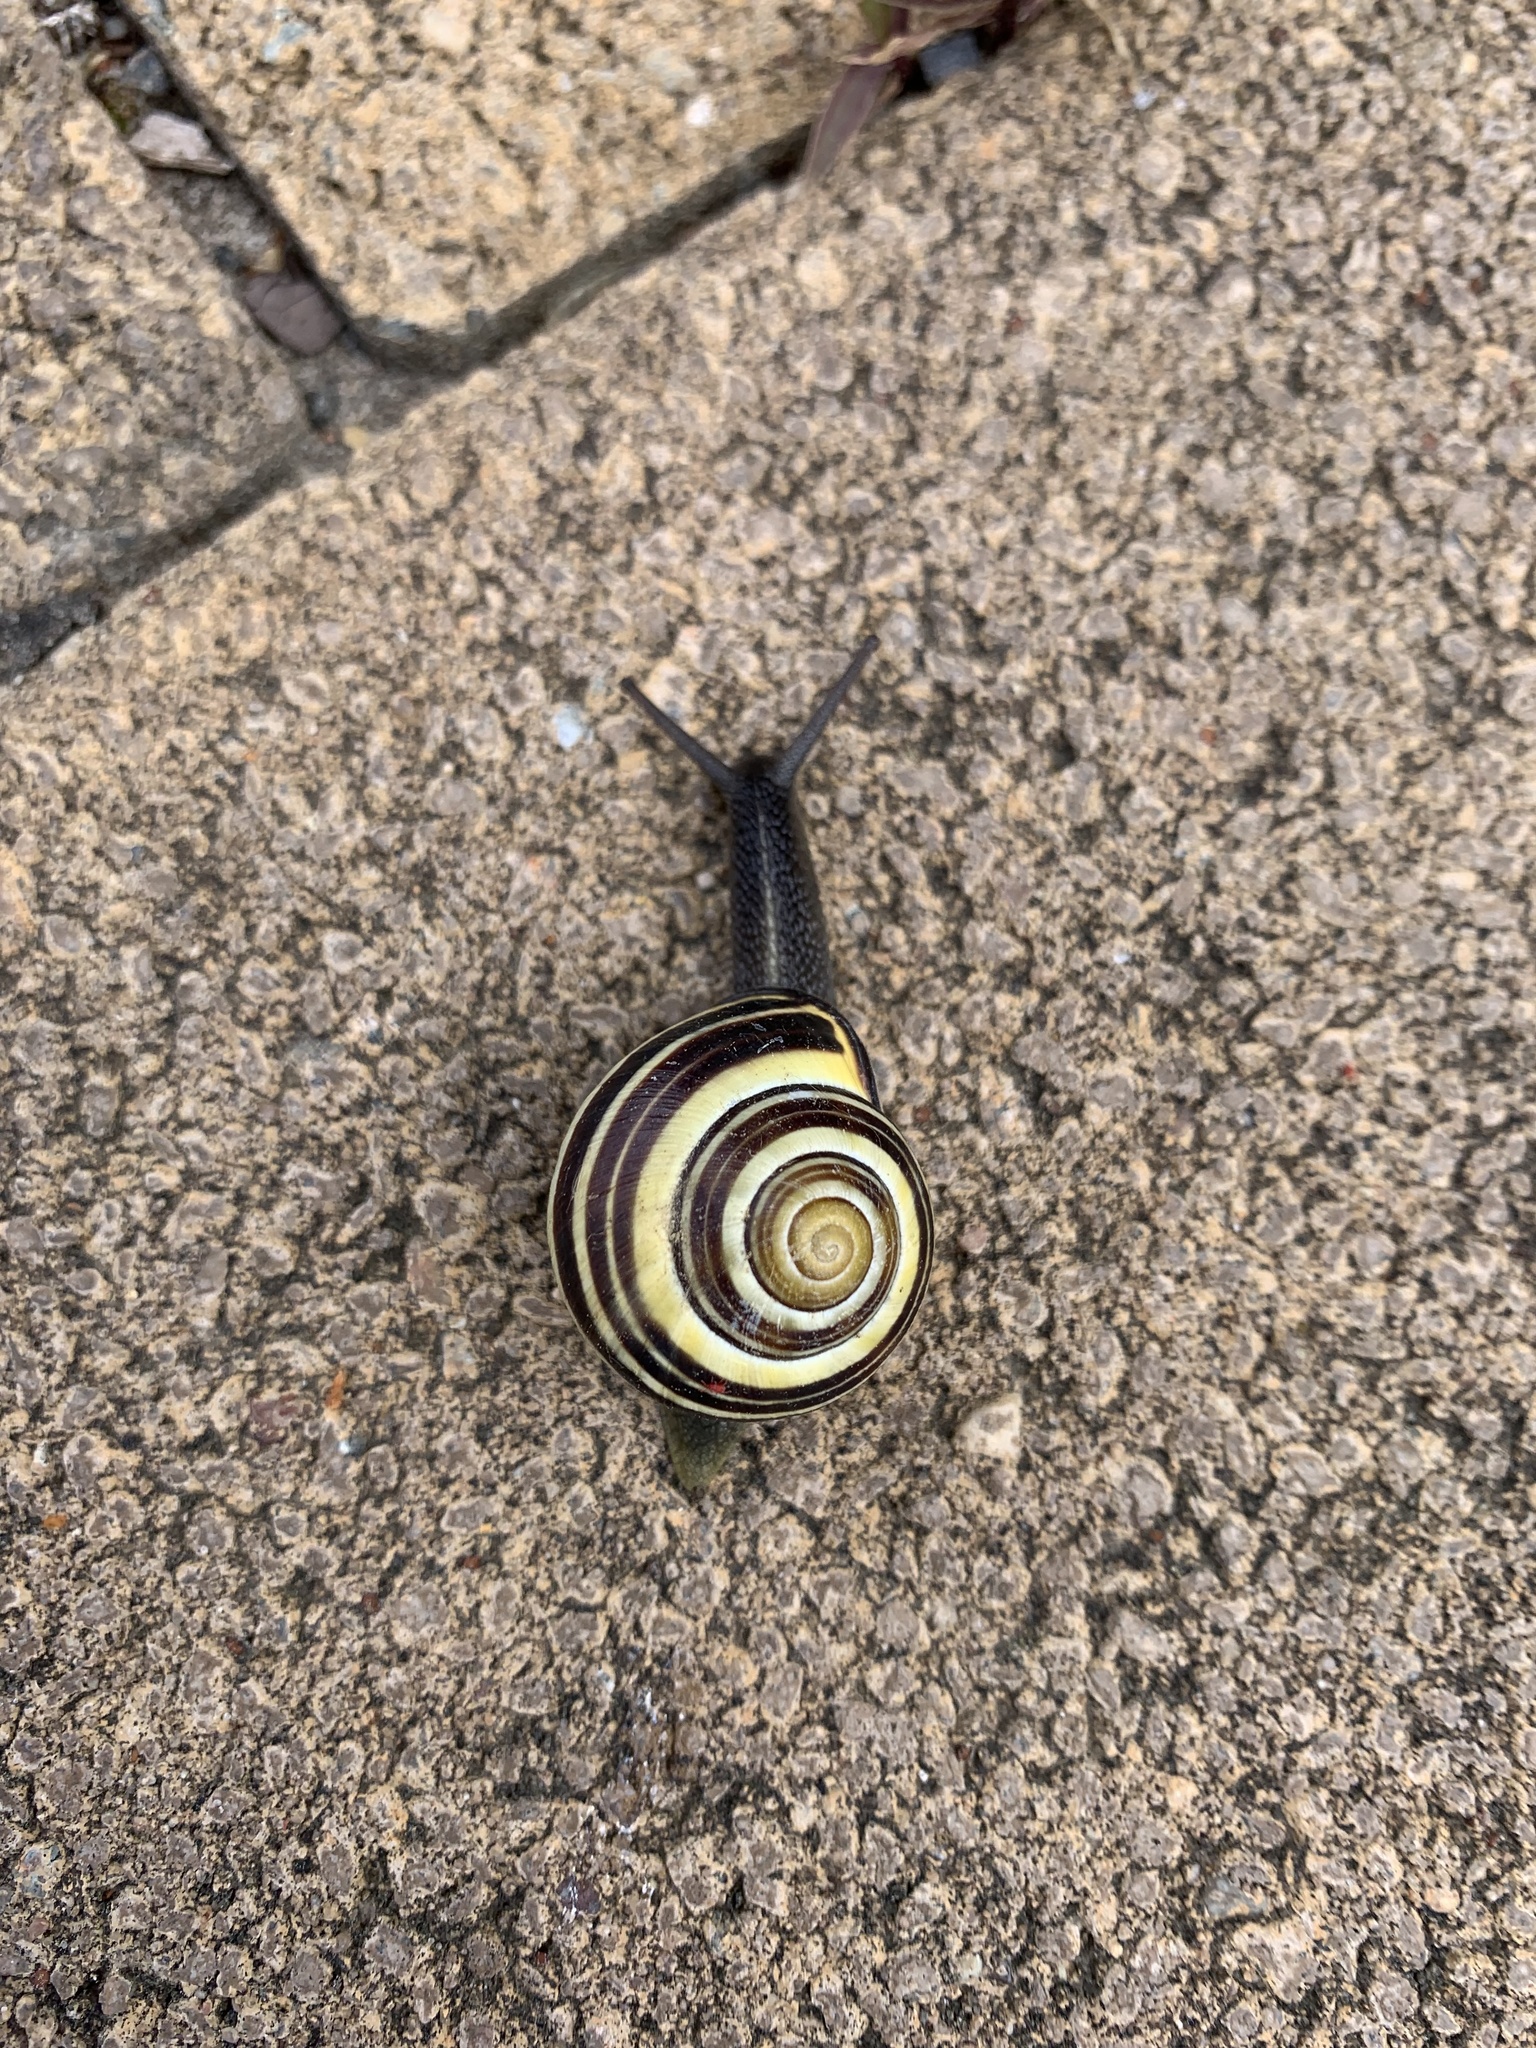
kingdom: Animalia
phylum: Mollusca
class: Gastropoda
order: Stylommatophora
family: Helicidae
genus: Cepaea
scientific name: Cepaea nemoralis
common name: Grovesnail
